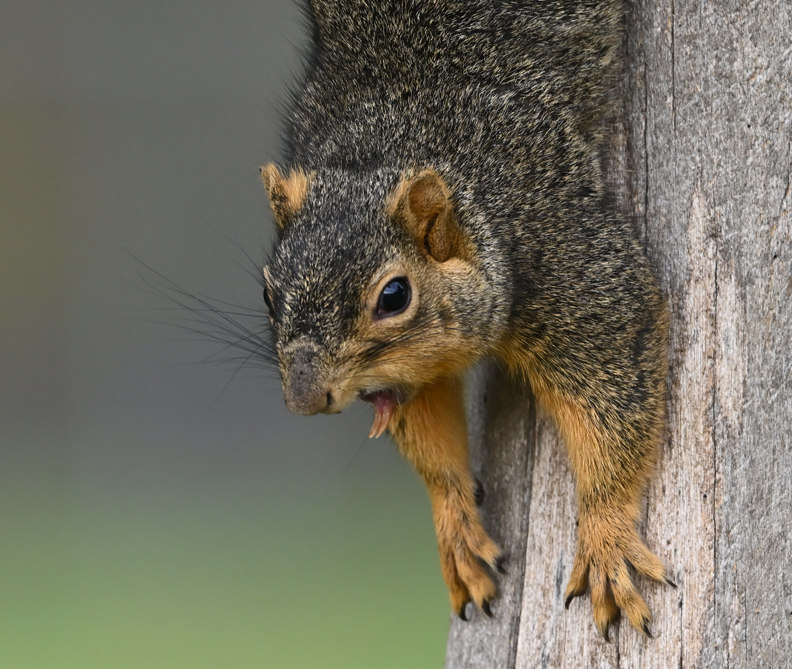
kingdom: Animalia
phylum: Chordata
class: Mammalia
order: Rodentia
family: Sciuridae
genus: Sciurus
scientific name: Sciurus niger
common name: Fox squirrel
